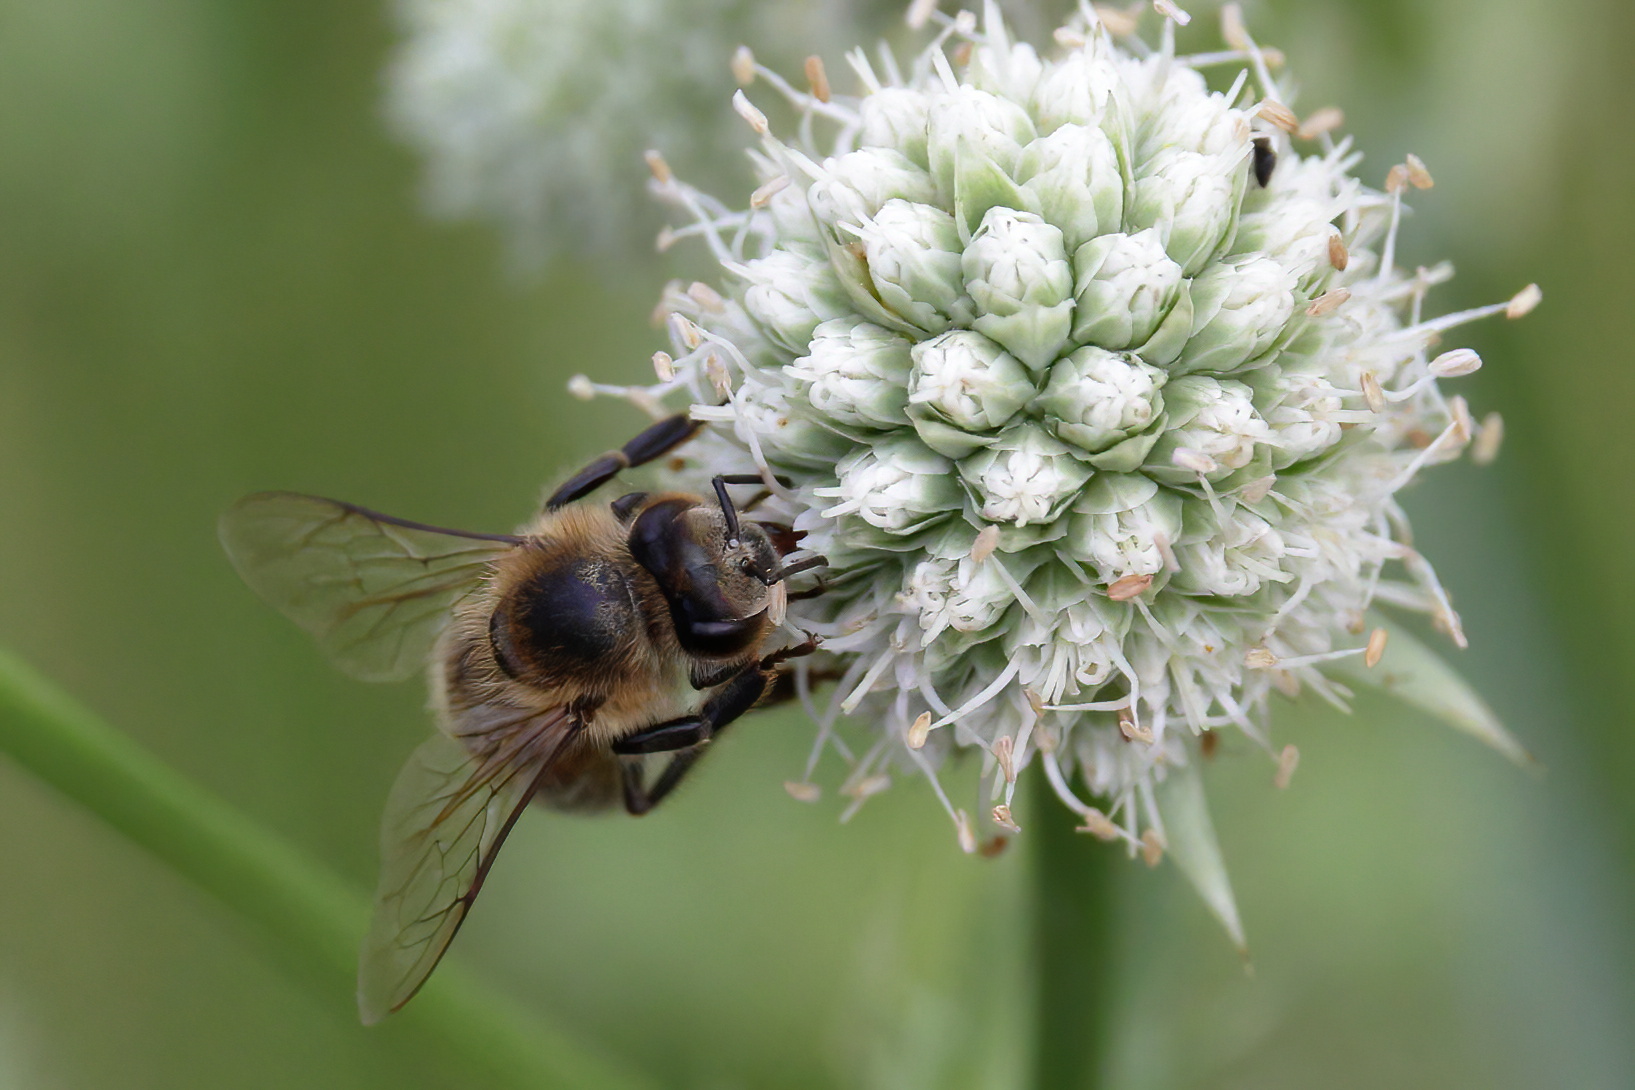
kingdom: Animalia
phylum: Arthropoda
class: Insecta
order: Hymenoptera
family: Apidae
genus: Apis
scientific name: Apis mellifera
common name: Honey bee
